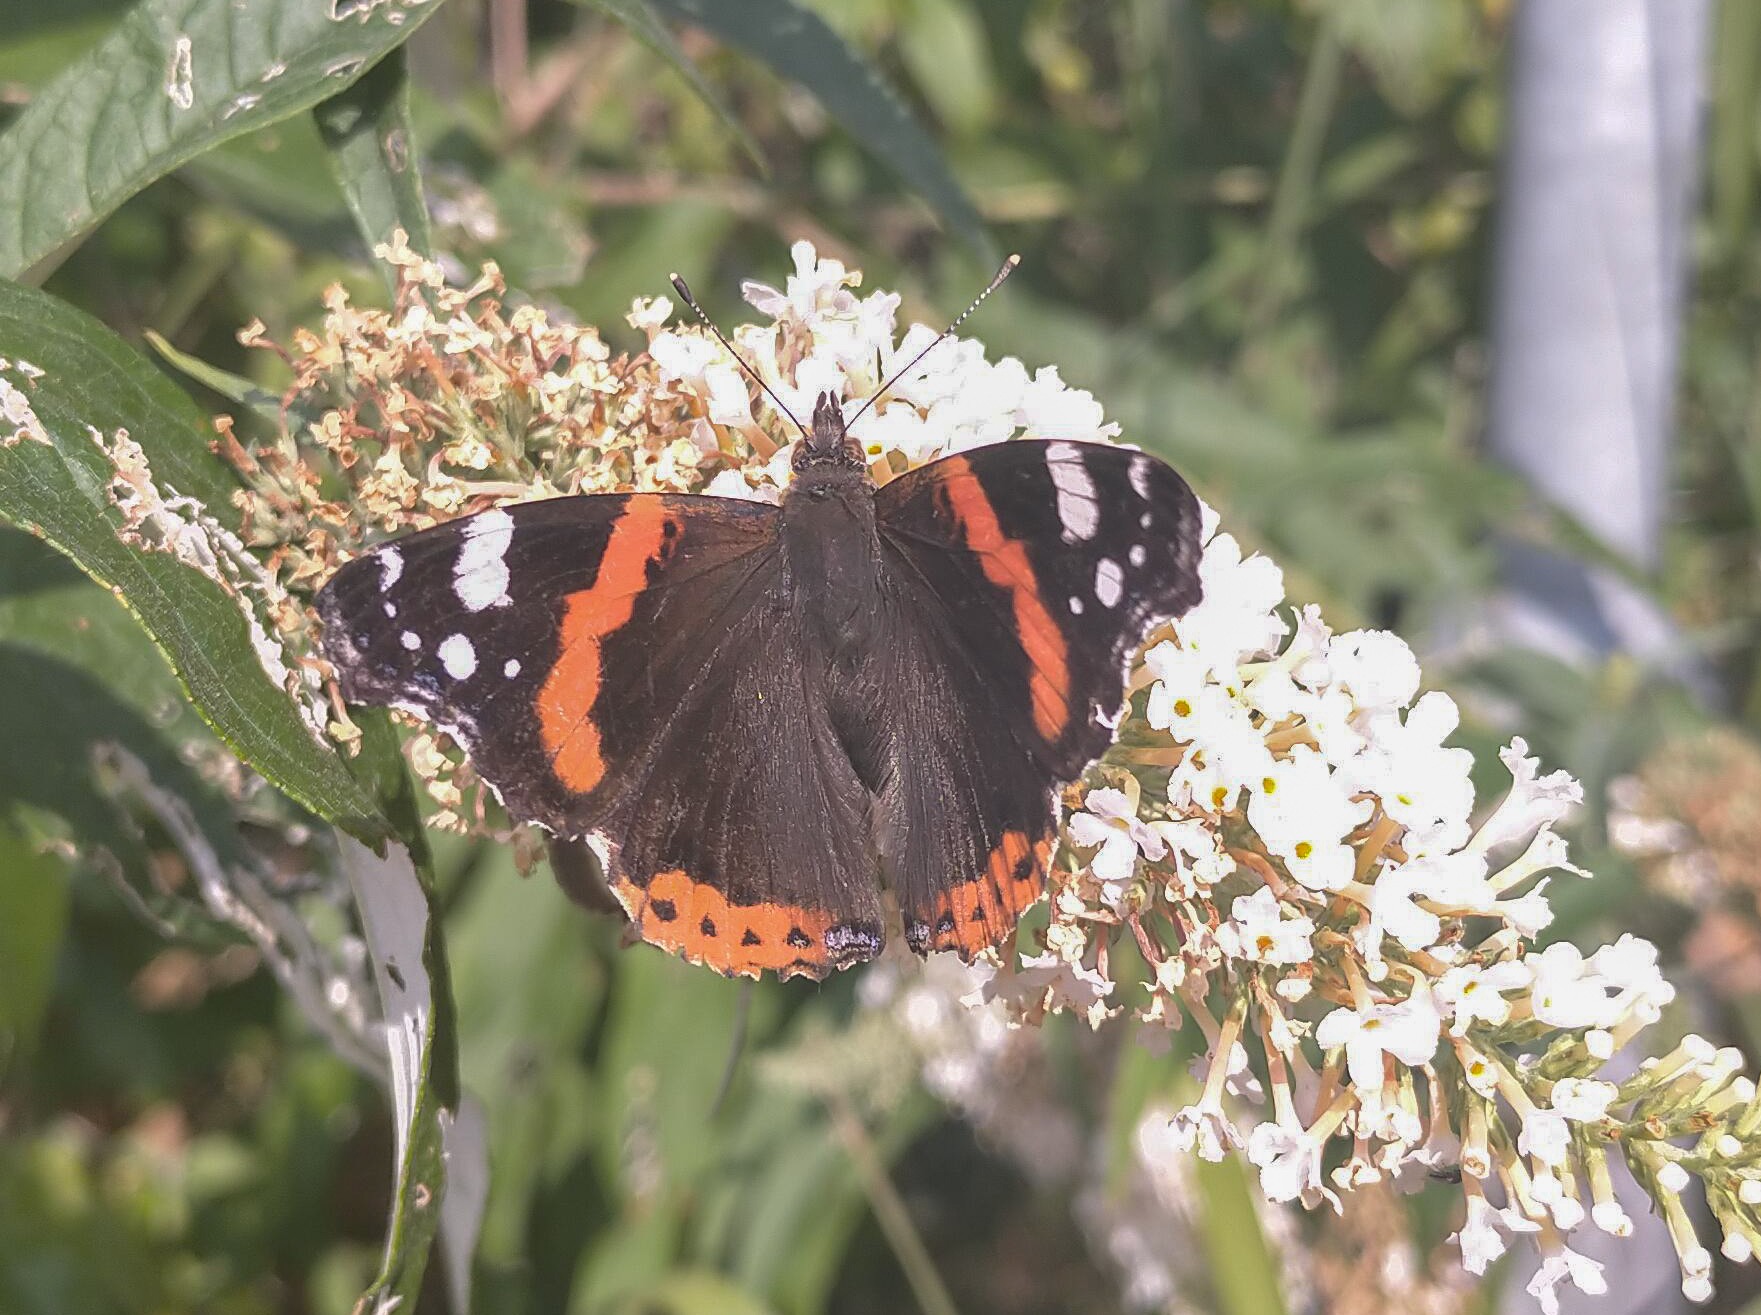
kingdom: Animalia
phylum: Arthropoda
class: Insecta
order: Lepidoptera
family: Nymphalidae
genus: Vanessa
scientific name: Vanessa atalanta
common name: Red admiral
